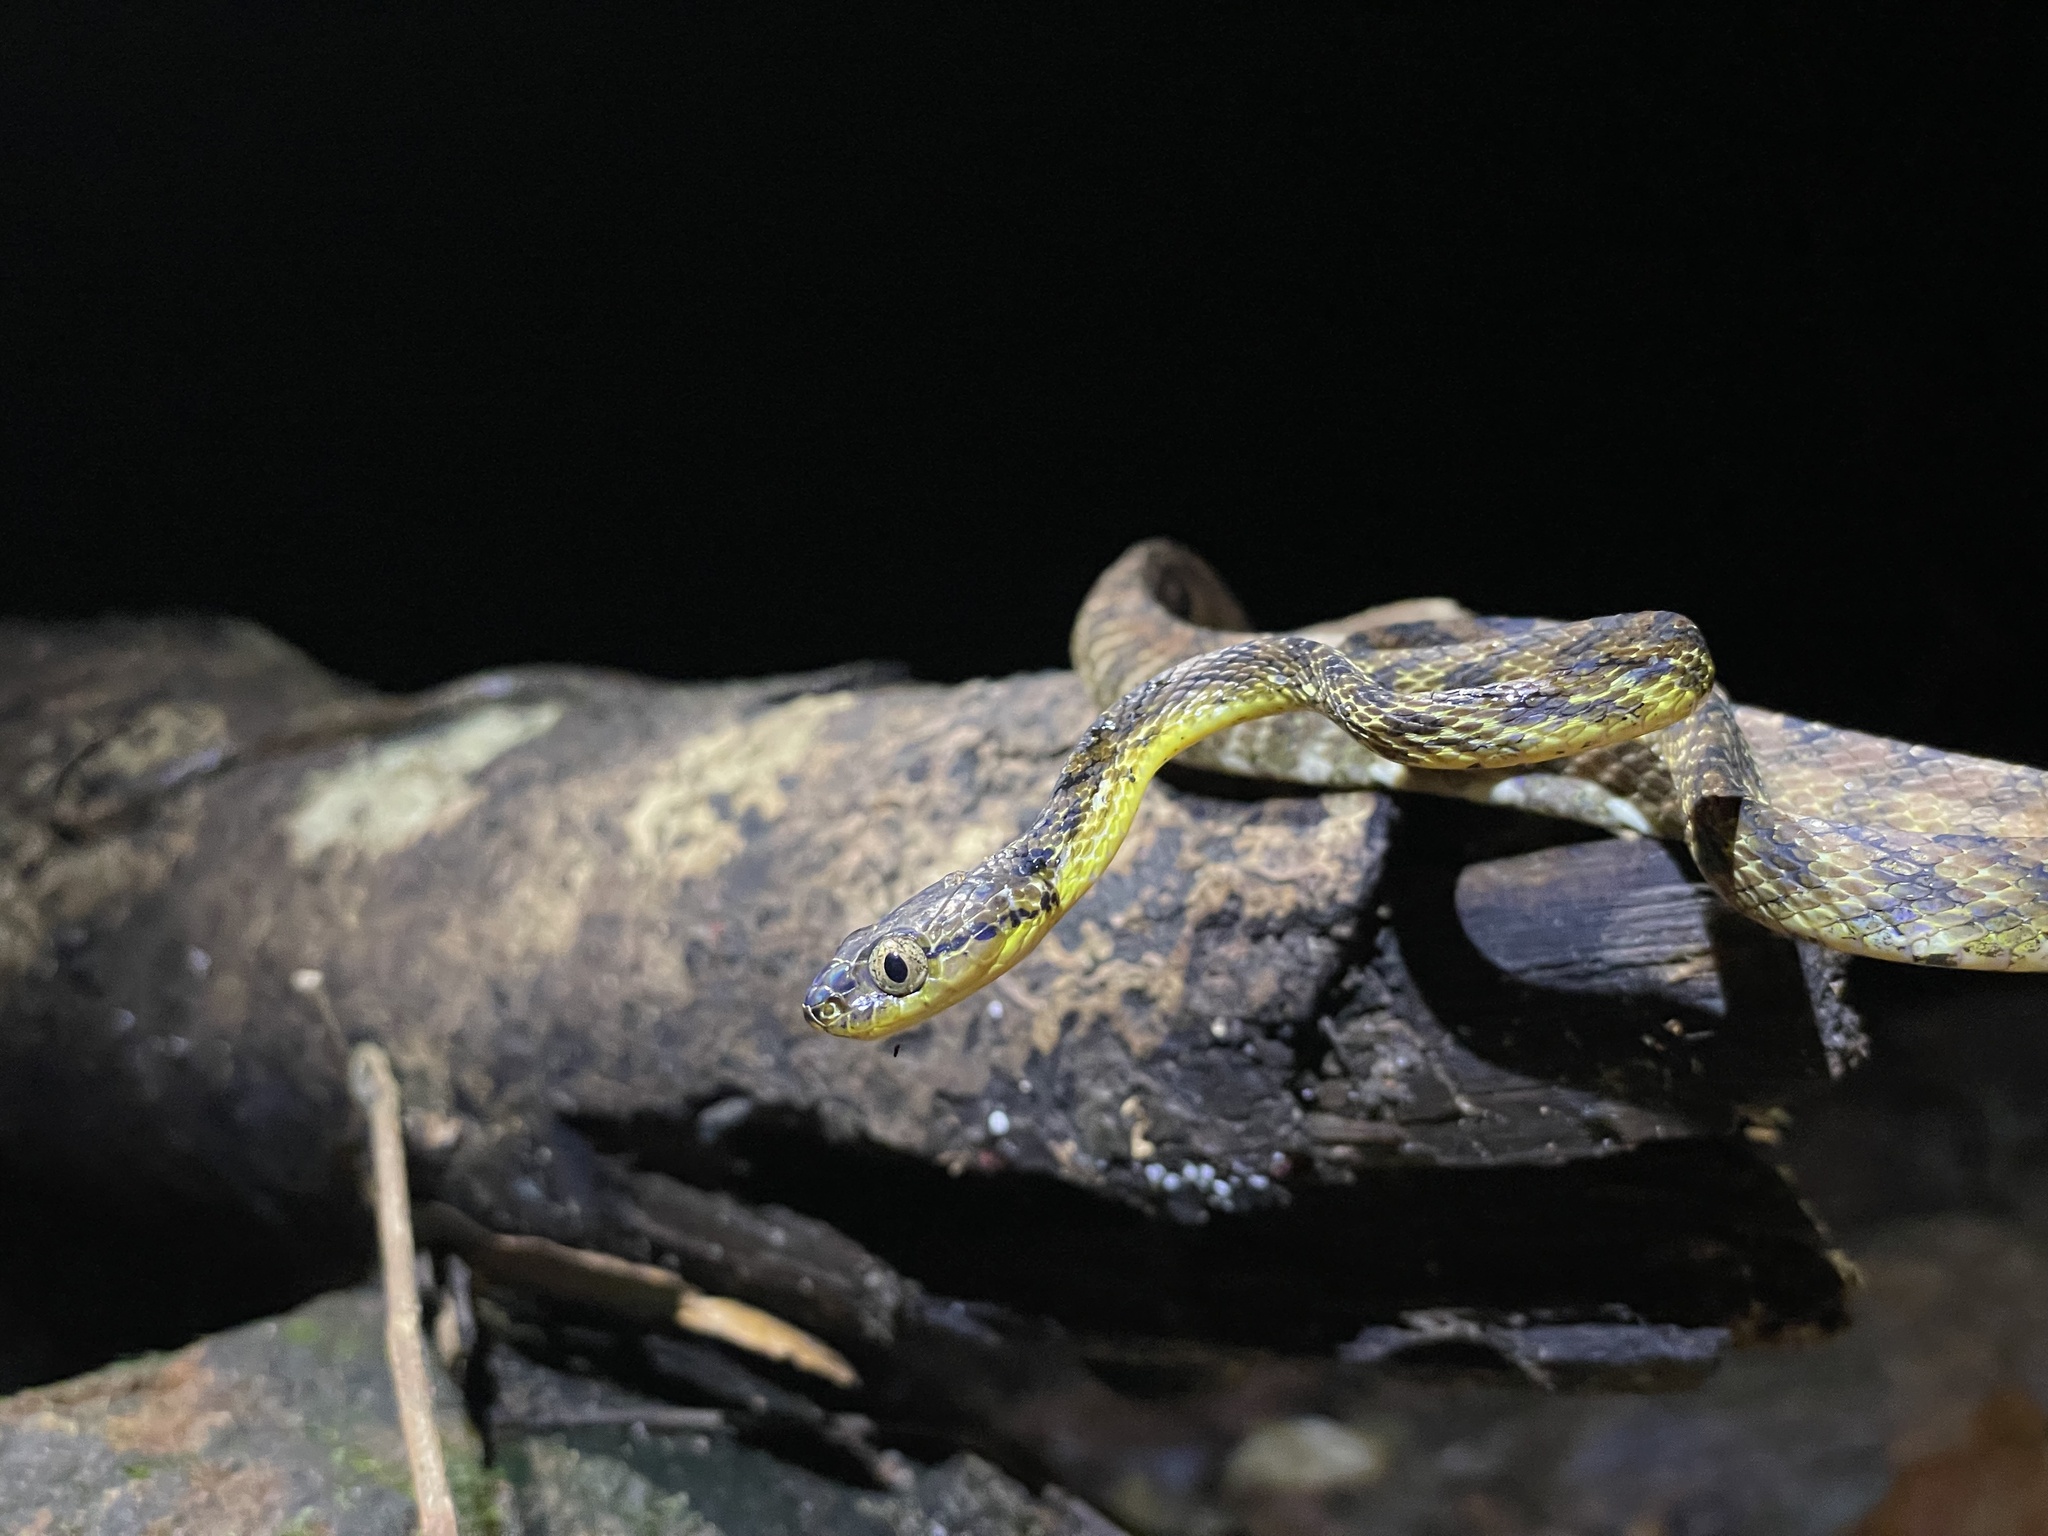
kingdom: Animalia
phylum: Chordata
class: Squamata
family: Colubridae
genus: Boiga
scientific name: Boiga thackerayi
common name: Thackeray’s cat snake
